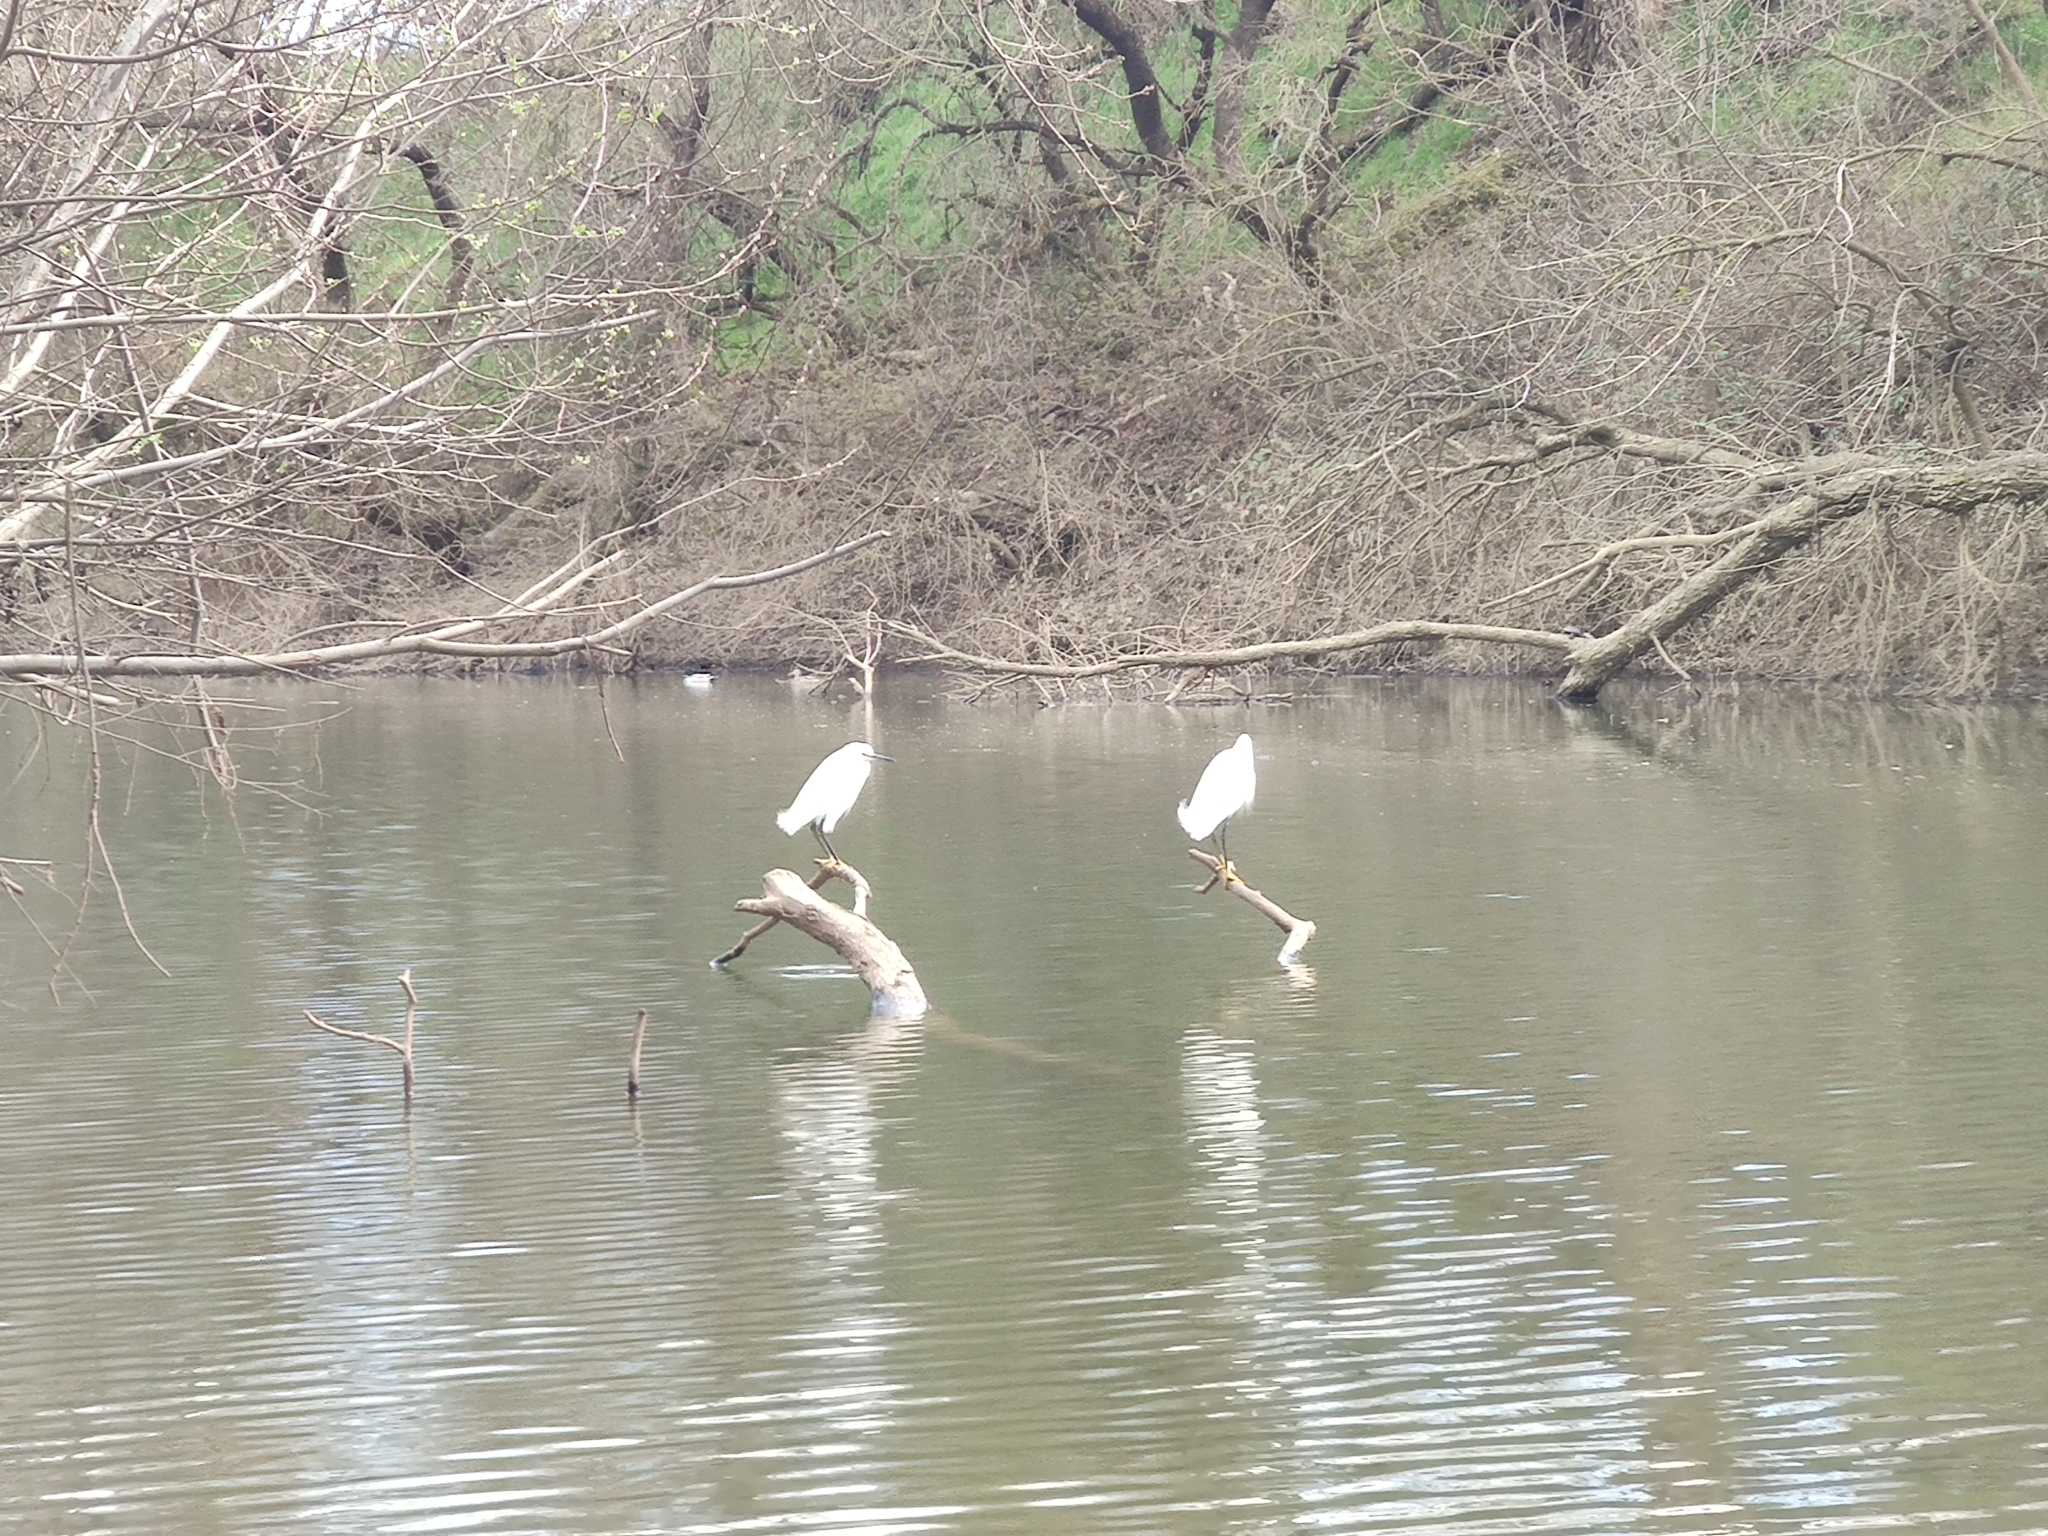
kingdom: Animalia
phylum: Chordata
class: Aves
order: Pelecaniformes
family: Ardeidae
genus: Egretta
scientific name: Egretta thula
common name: Snowy egret
